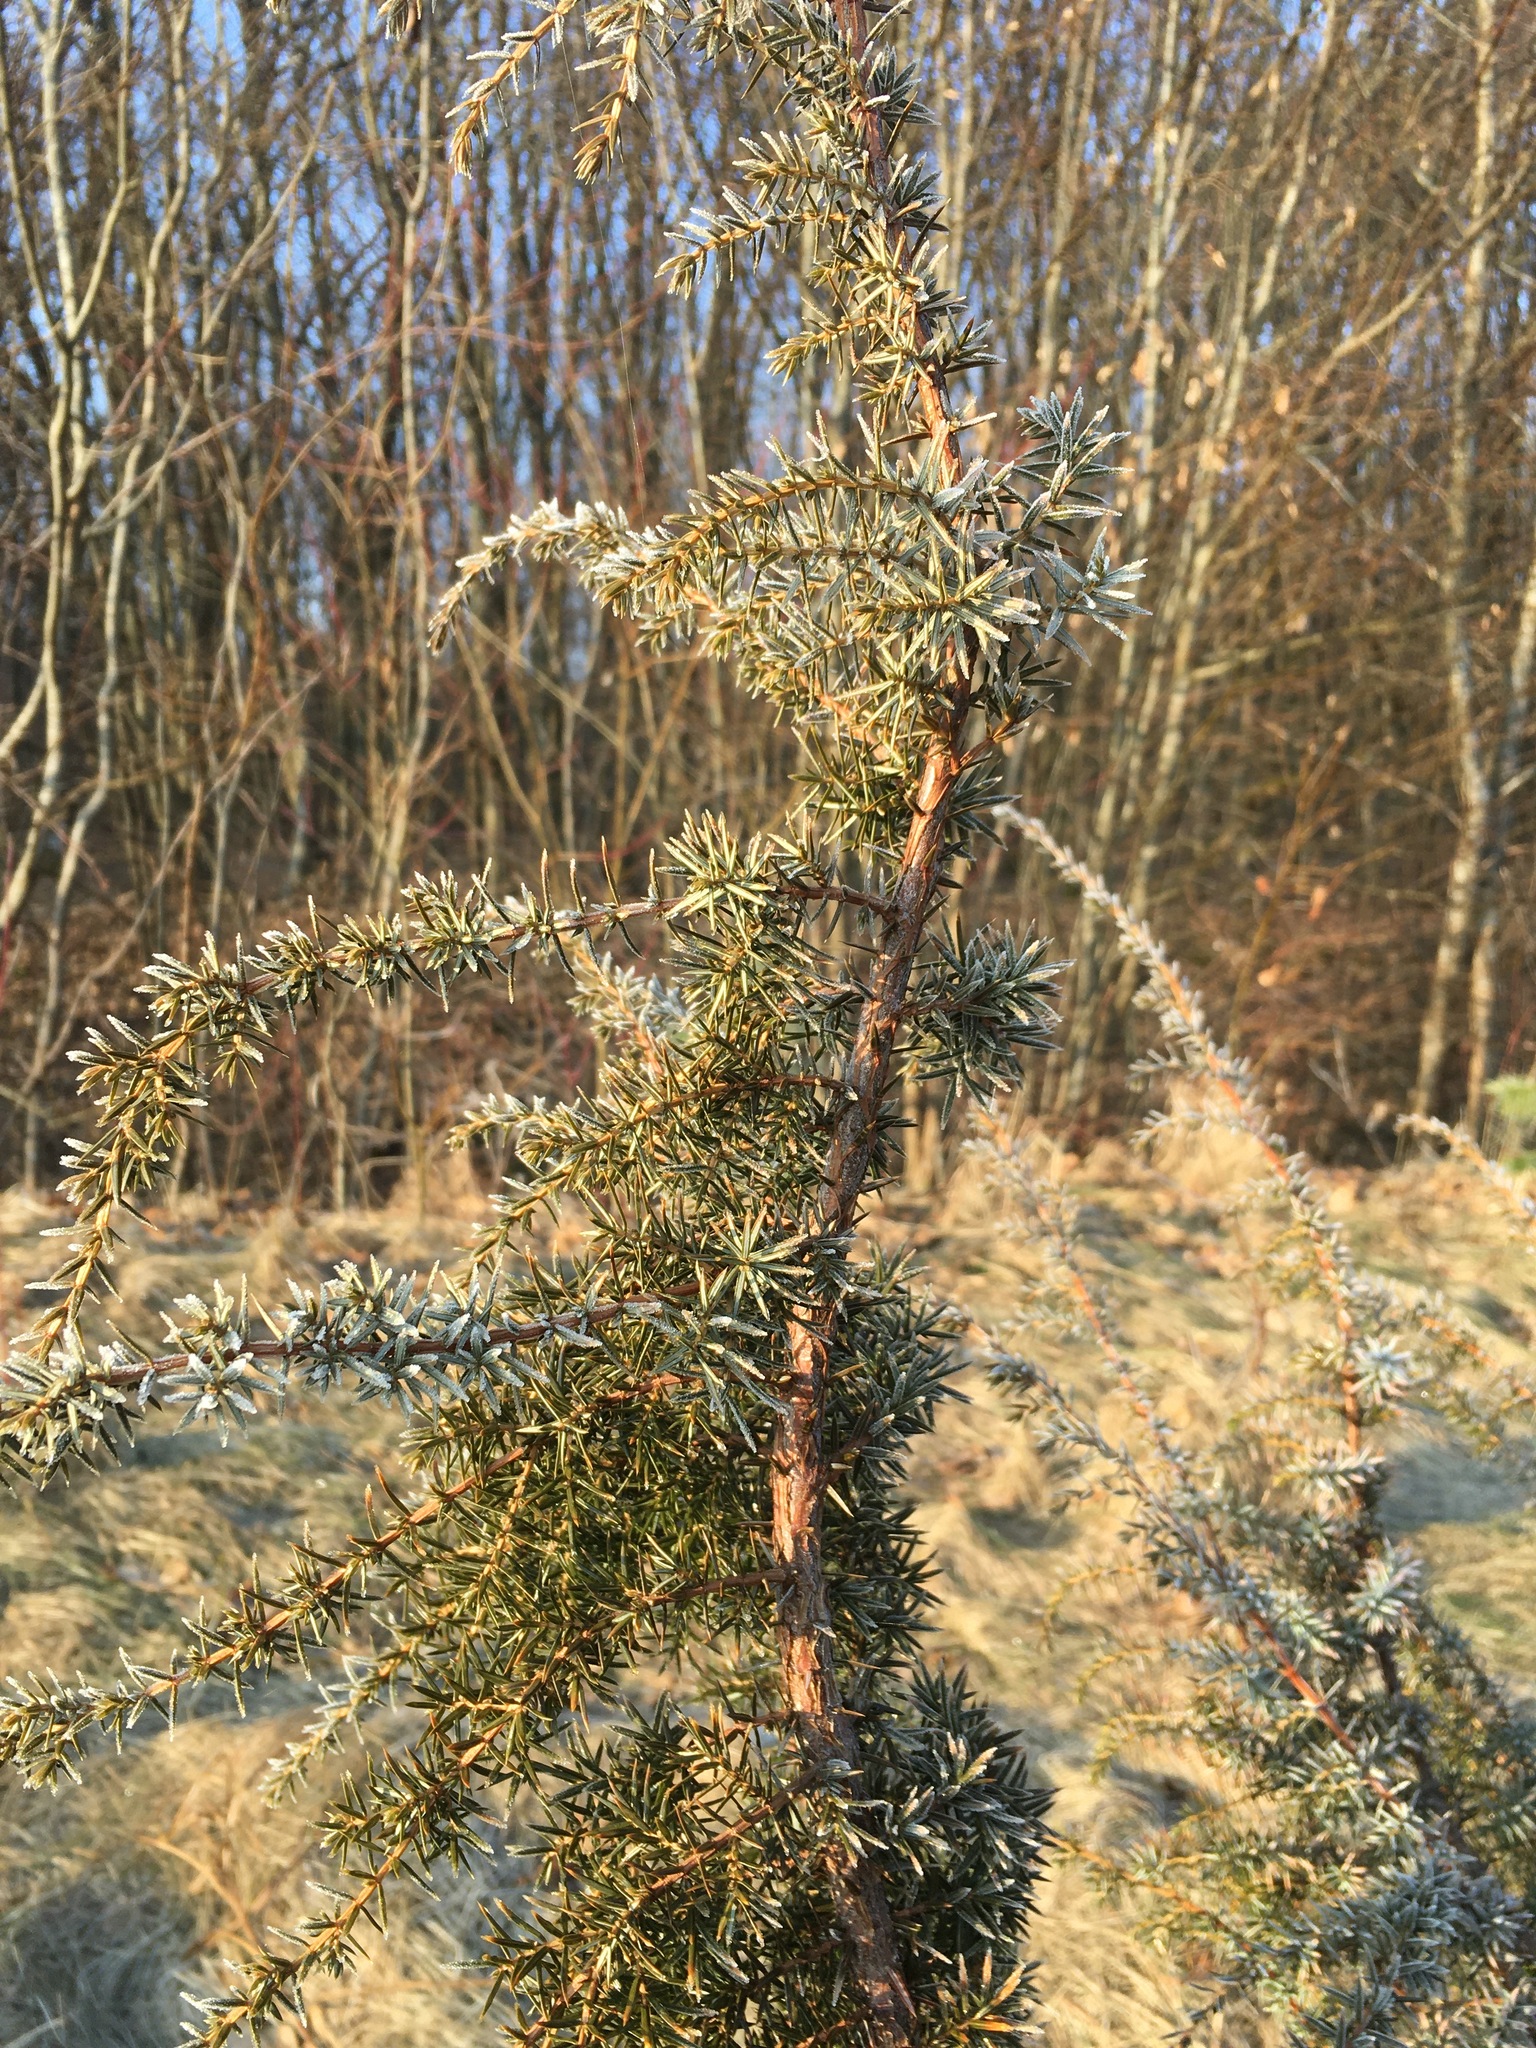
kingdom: Plantae
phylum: Tracheophyta
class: Pinopsida
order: Pinales
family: Cupressaceae
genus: Juniperus
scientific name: Juniperus communis
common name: Common juniper
